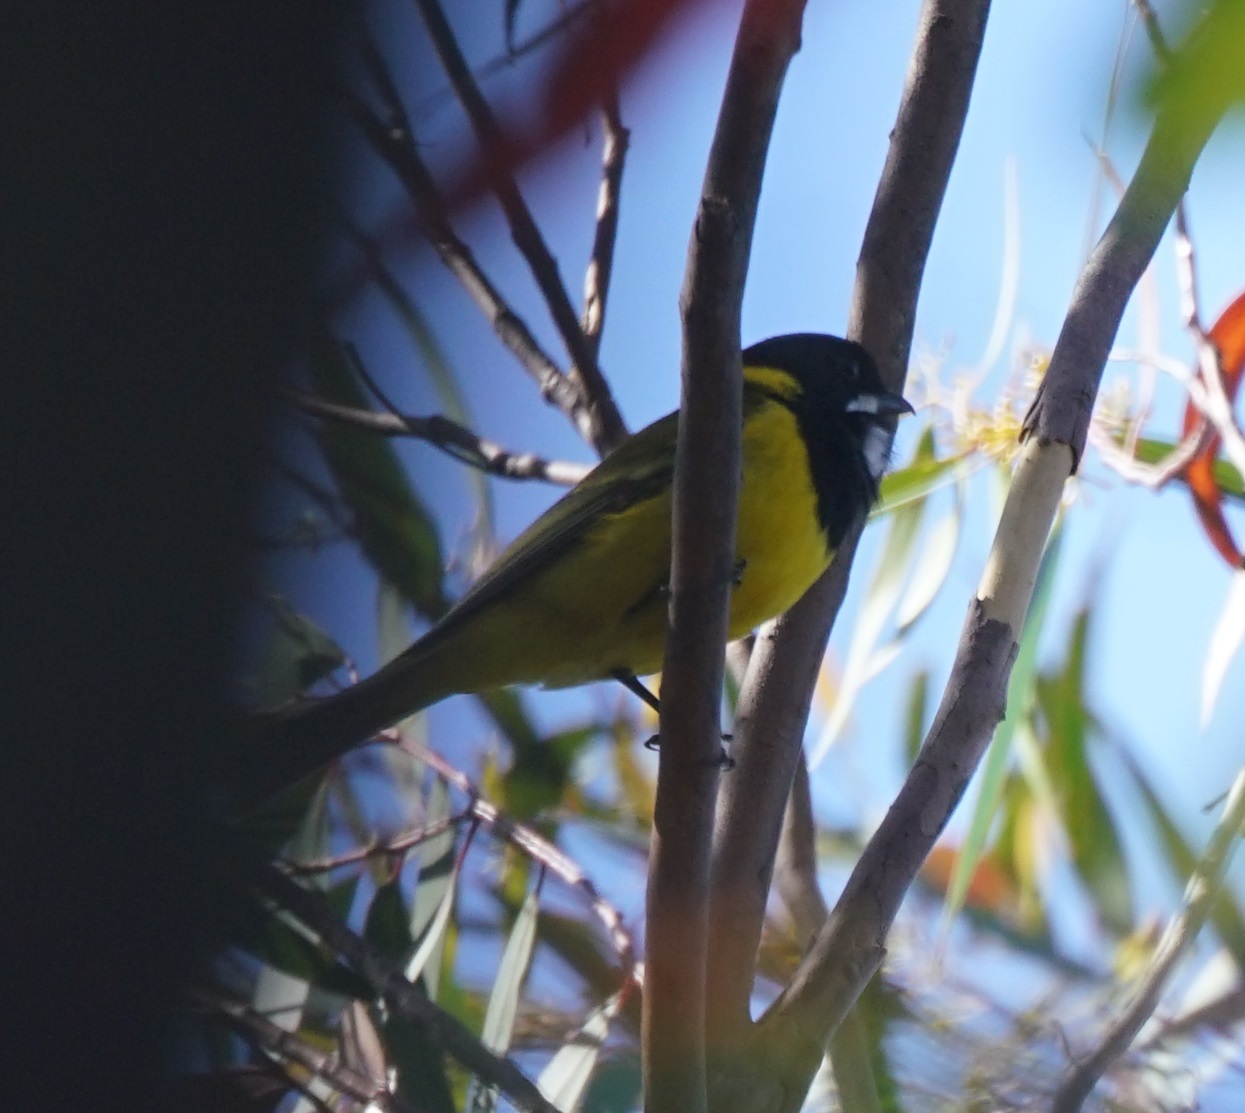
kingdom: Animalia
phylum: Chordata
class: Aves
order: Passeriformes
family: Pachycephalidae
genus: Pachycephala
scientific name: Pachycephala pectoralis
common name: Australian golden whistler
